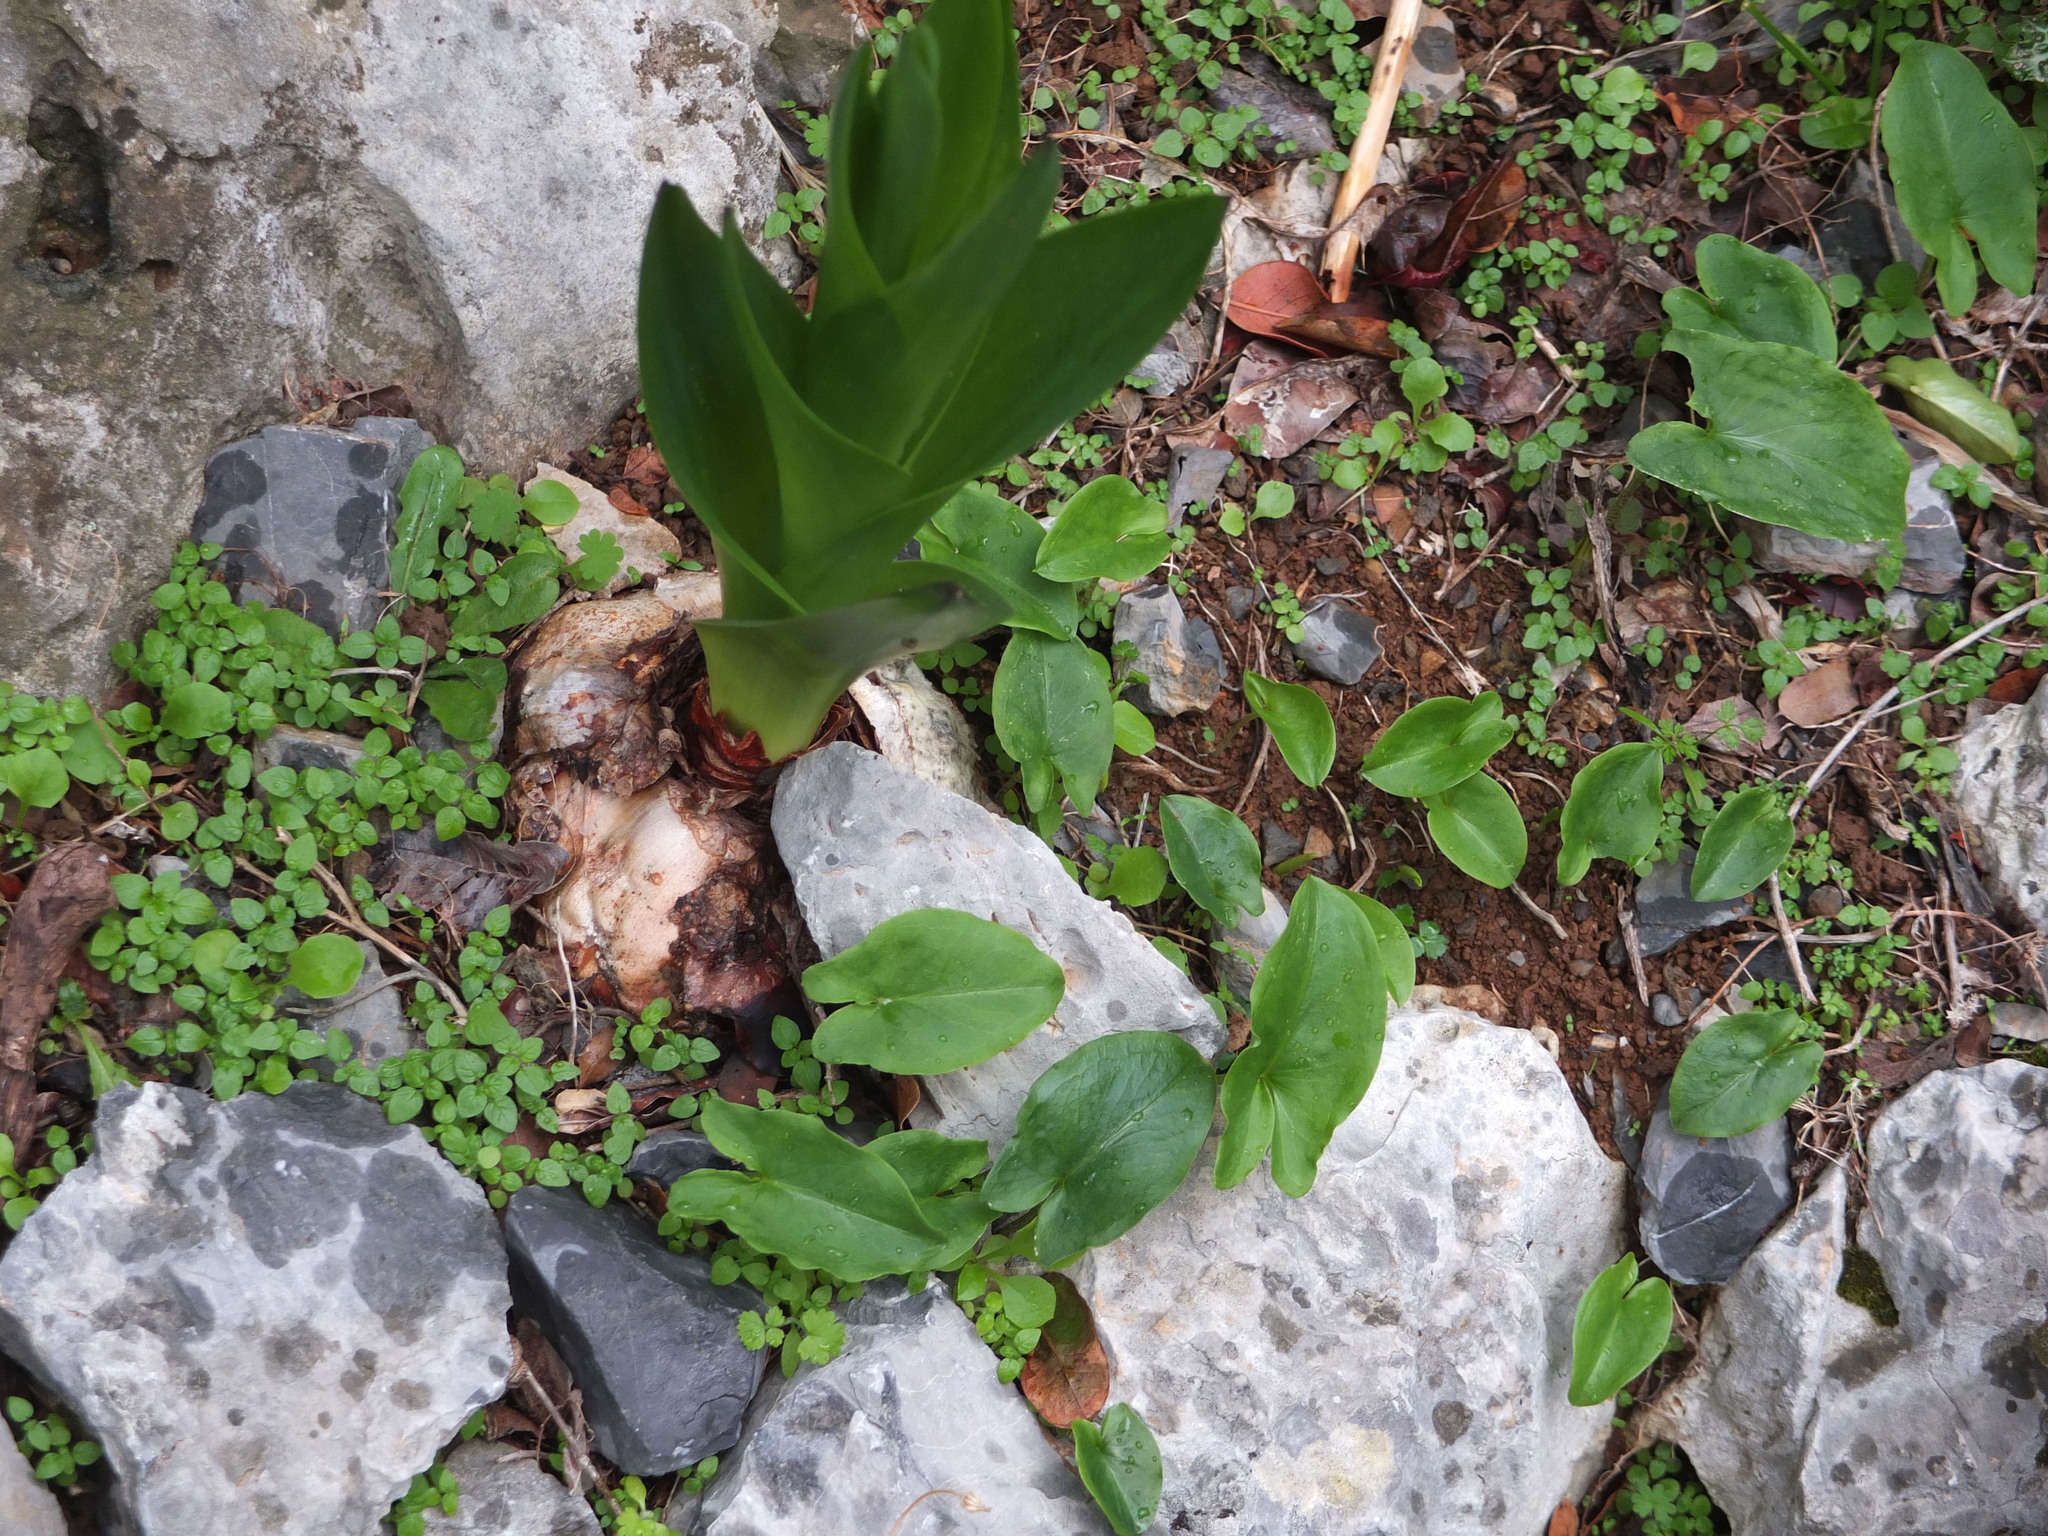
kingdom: Plantae
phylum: Tracheophyta
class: Liliopsida
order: Alismatales
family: Araceae
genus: Arisarum
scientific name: Arisarum vulgare
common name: Common arisarum
